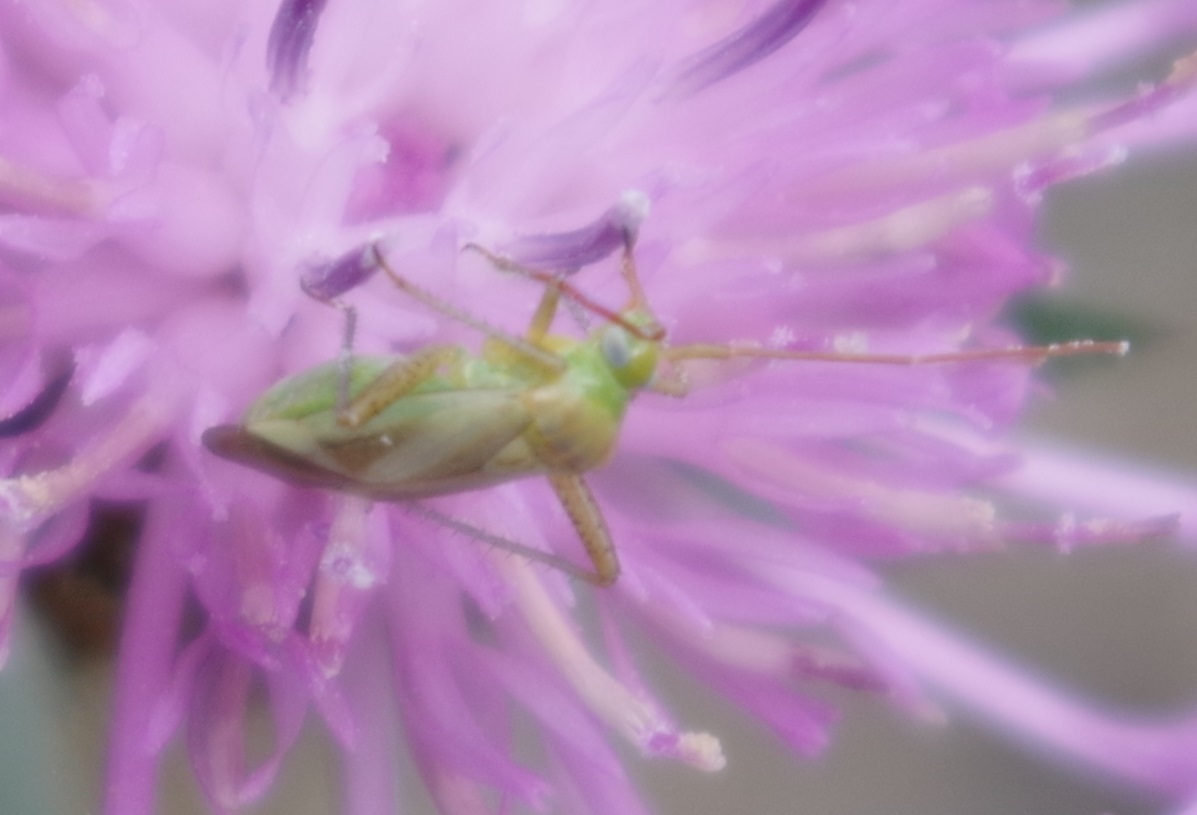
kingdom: Animalia
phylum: Arthropoda
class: Insecta
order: Hemiptera
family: Miridae
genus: Adelphocoris
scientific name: Adelphocoris lineolatus
